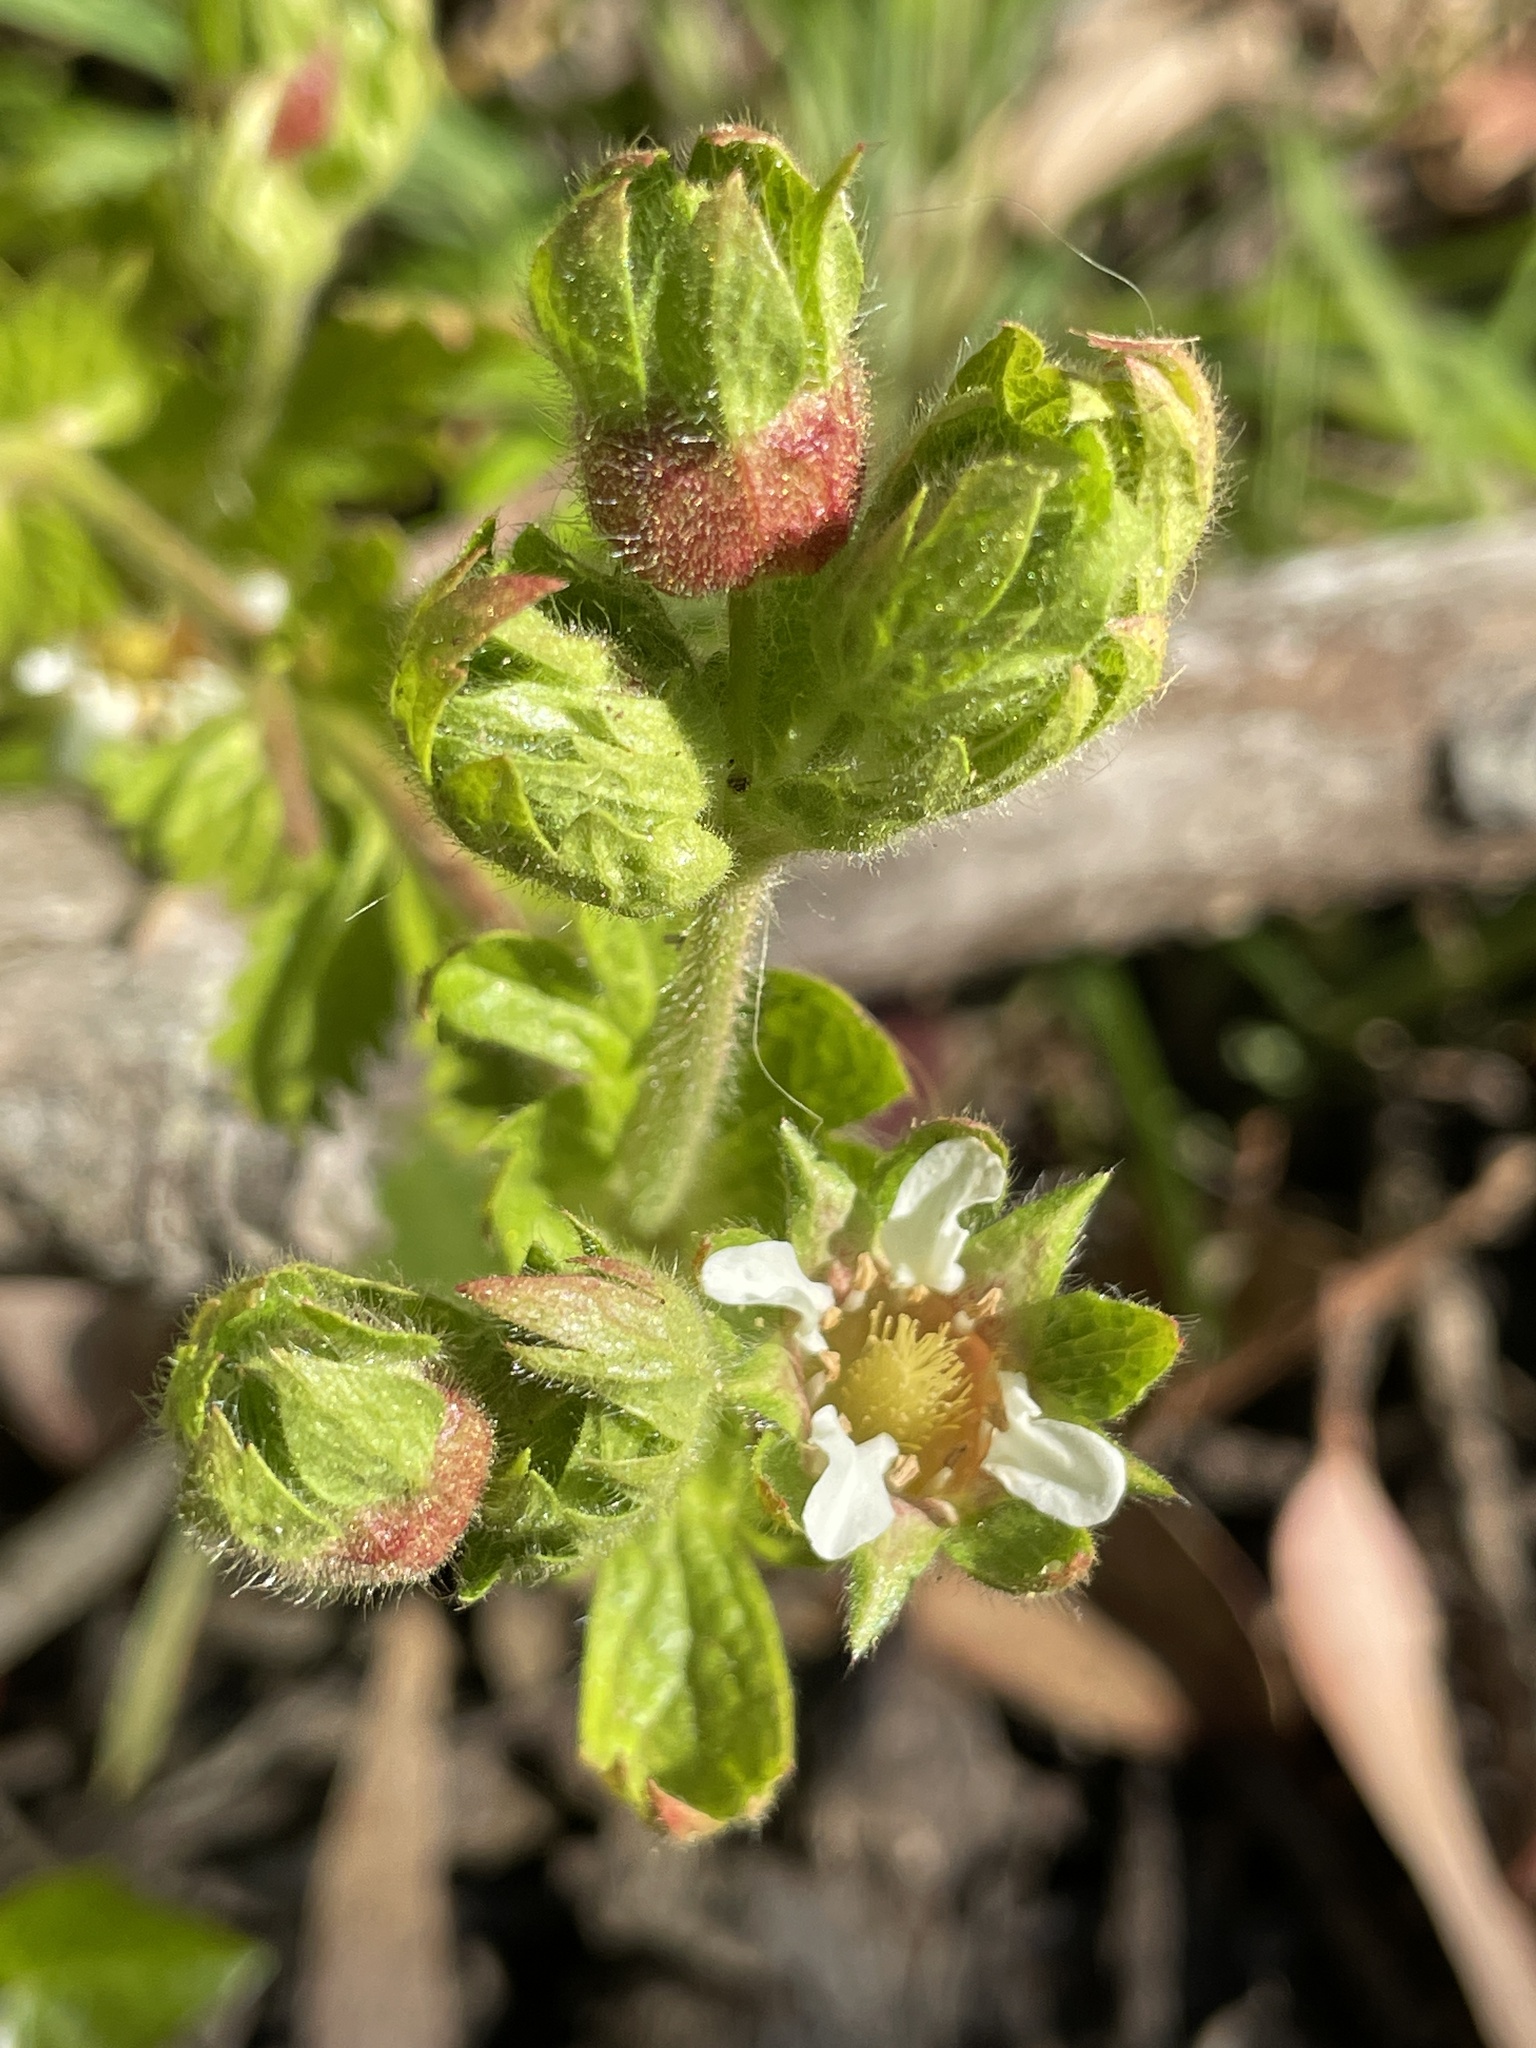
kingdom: Plantae
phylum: Tracheophyta
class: Magnoliopsida
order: Rosales
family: Rosaceae
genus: Potentilla
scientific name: Potentilla californica
